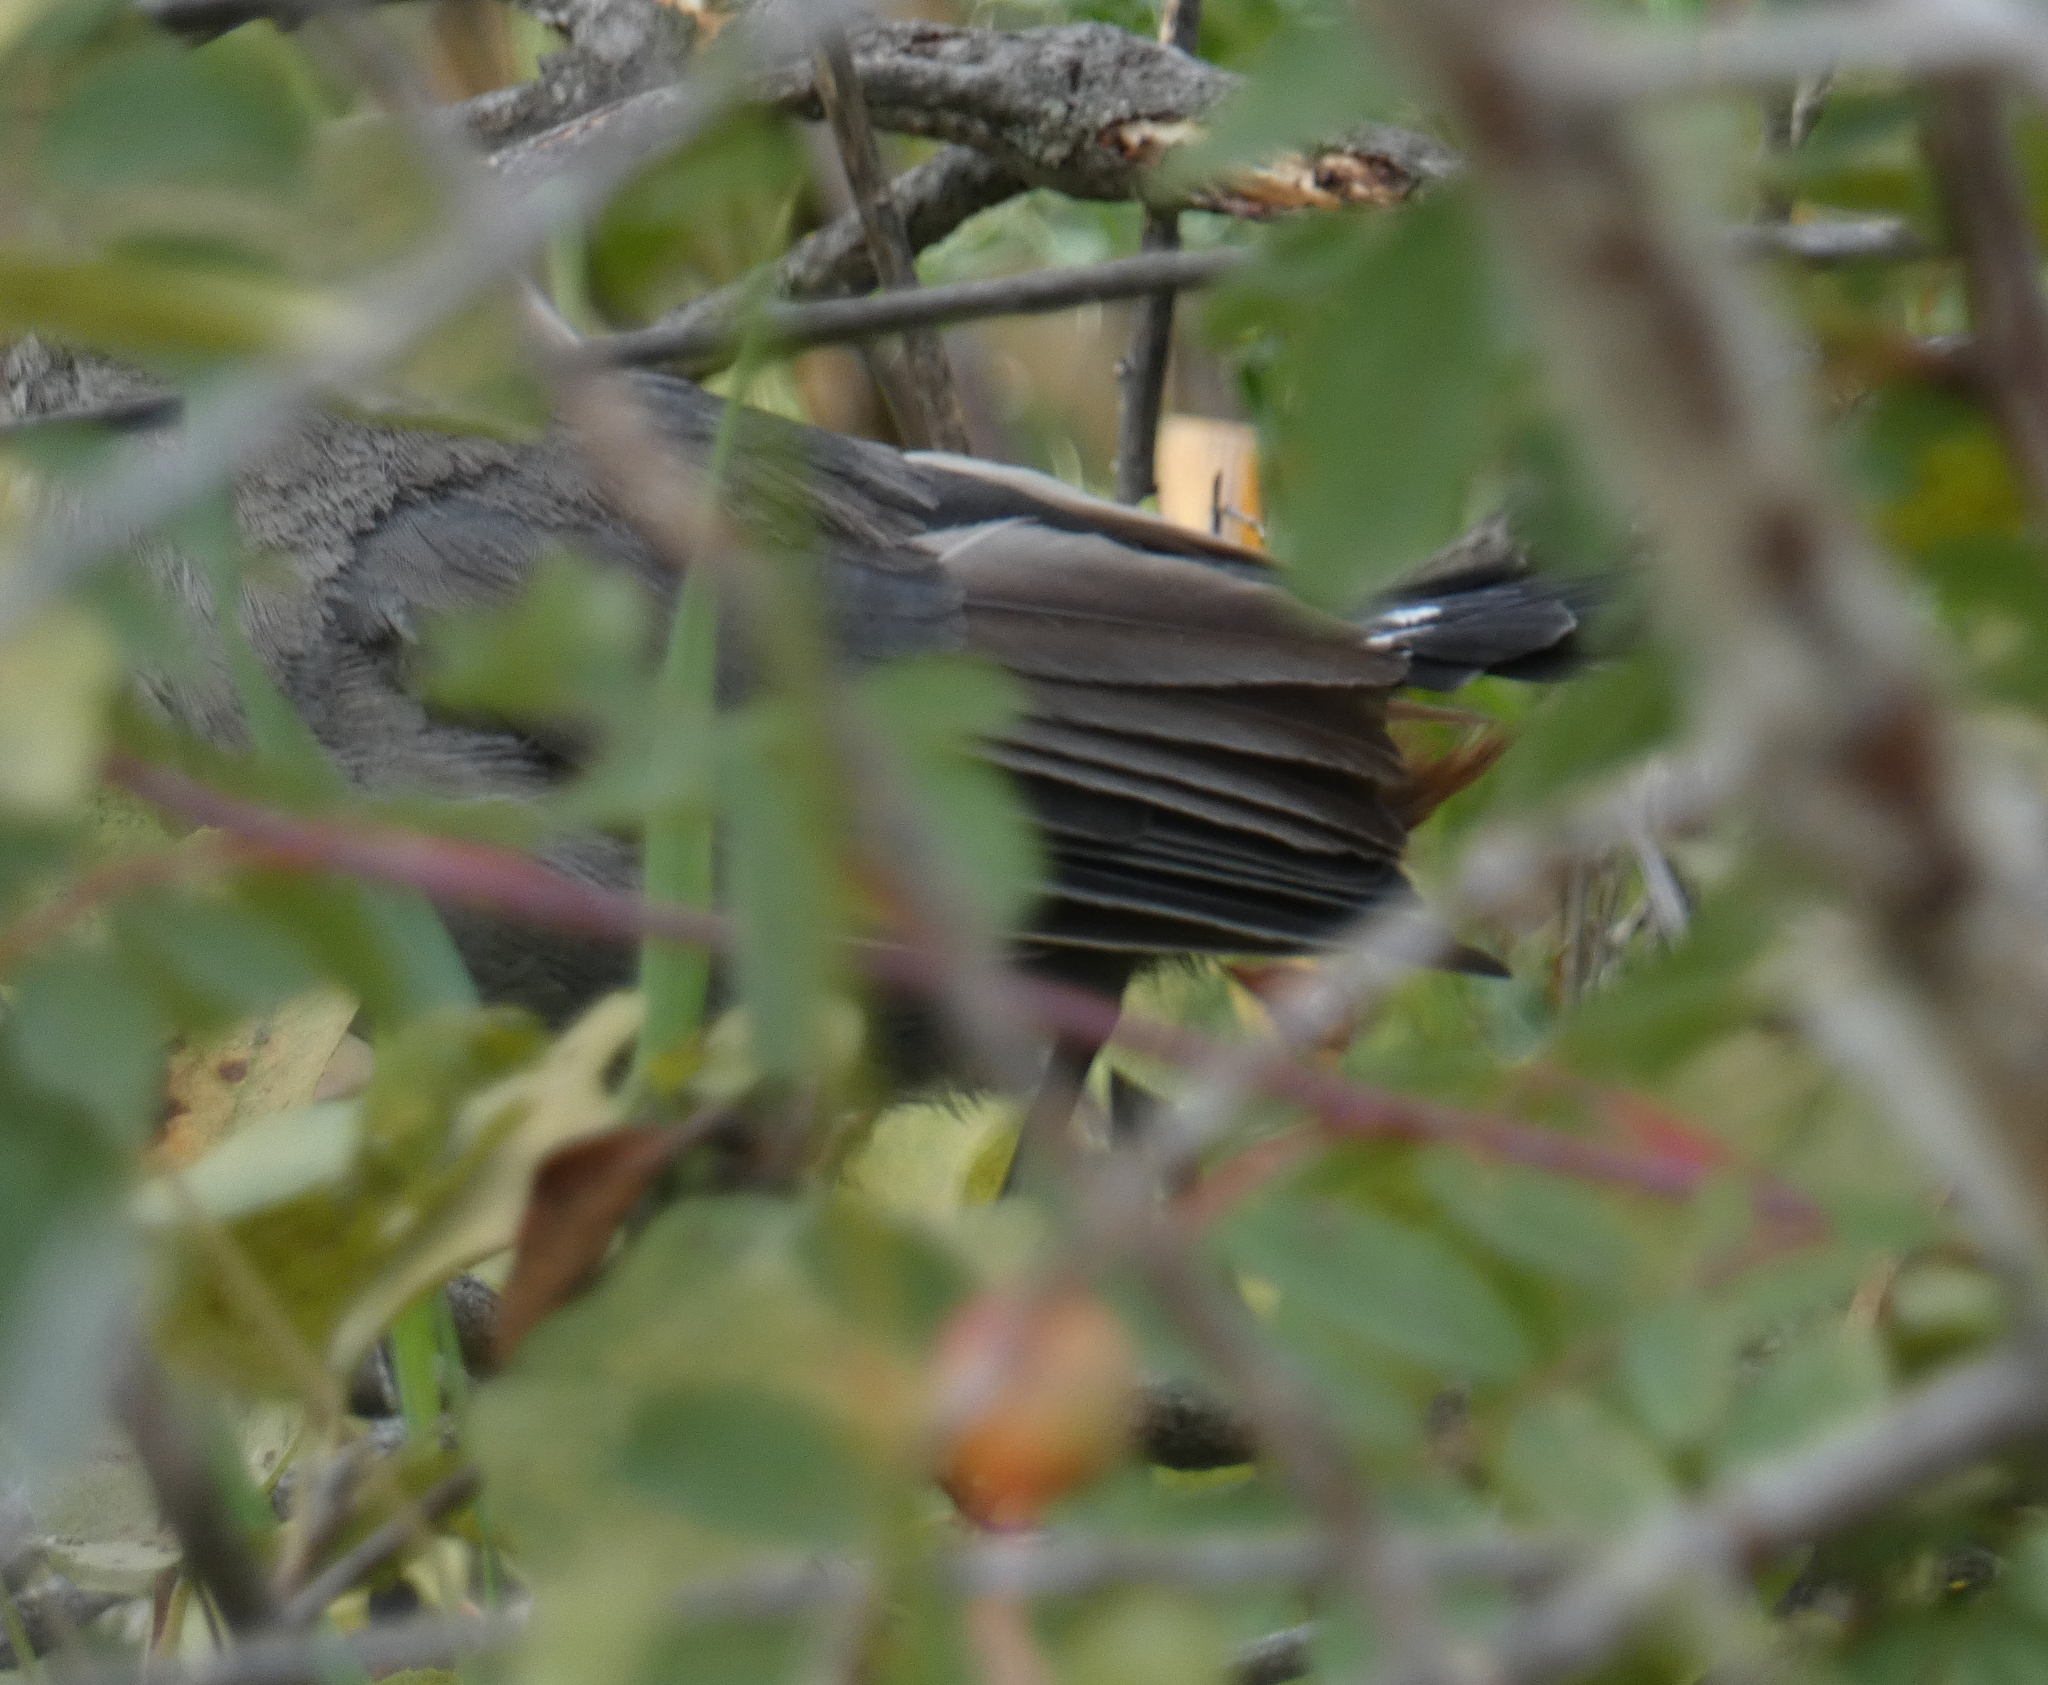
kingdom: Animalia
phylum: Chordata
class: Aves
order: Passeriformes
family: Mimidae
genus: Dumetella
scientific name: Dumetella carolinensis
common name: Gray catbird
